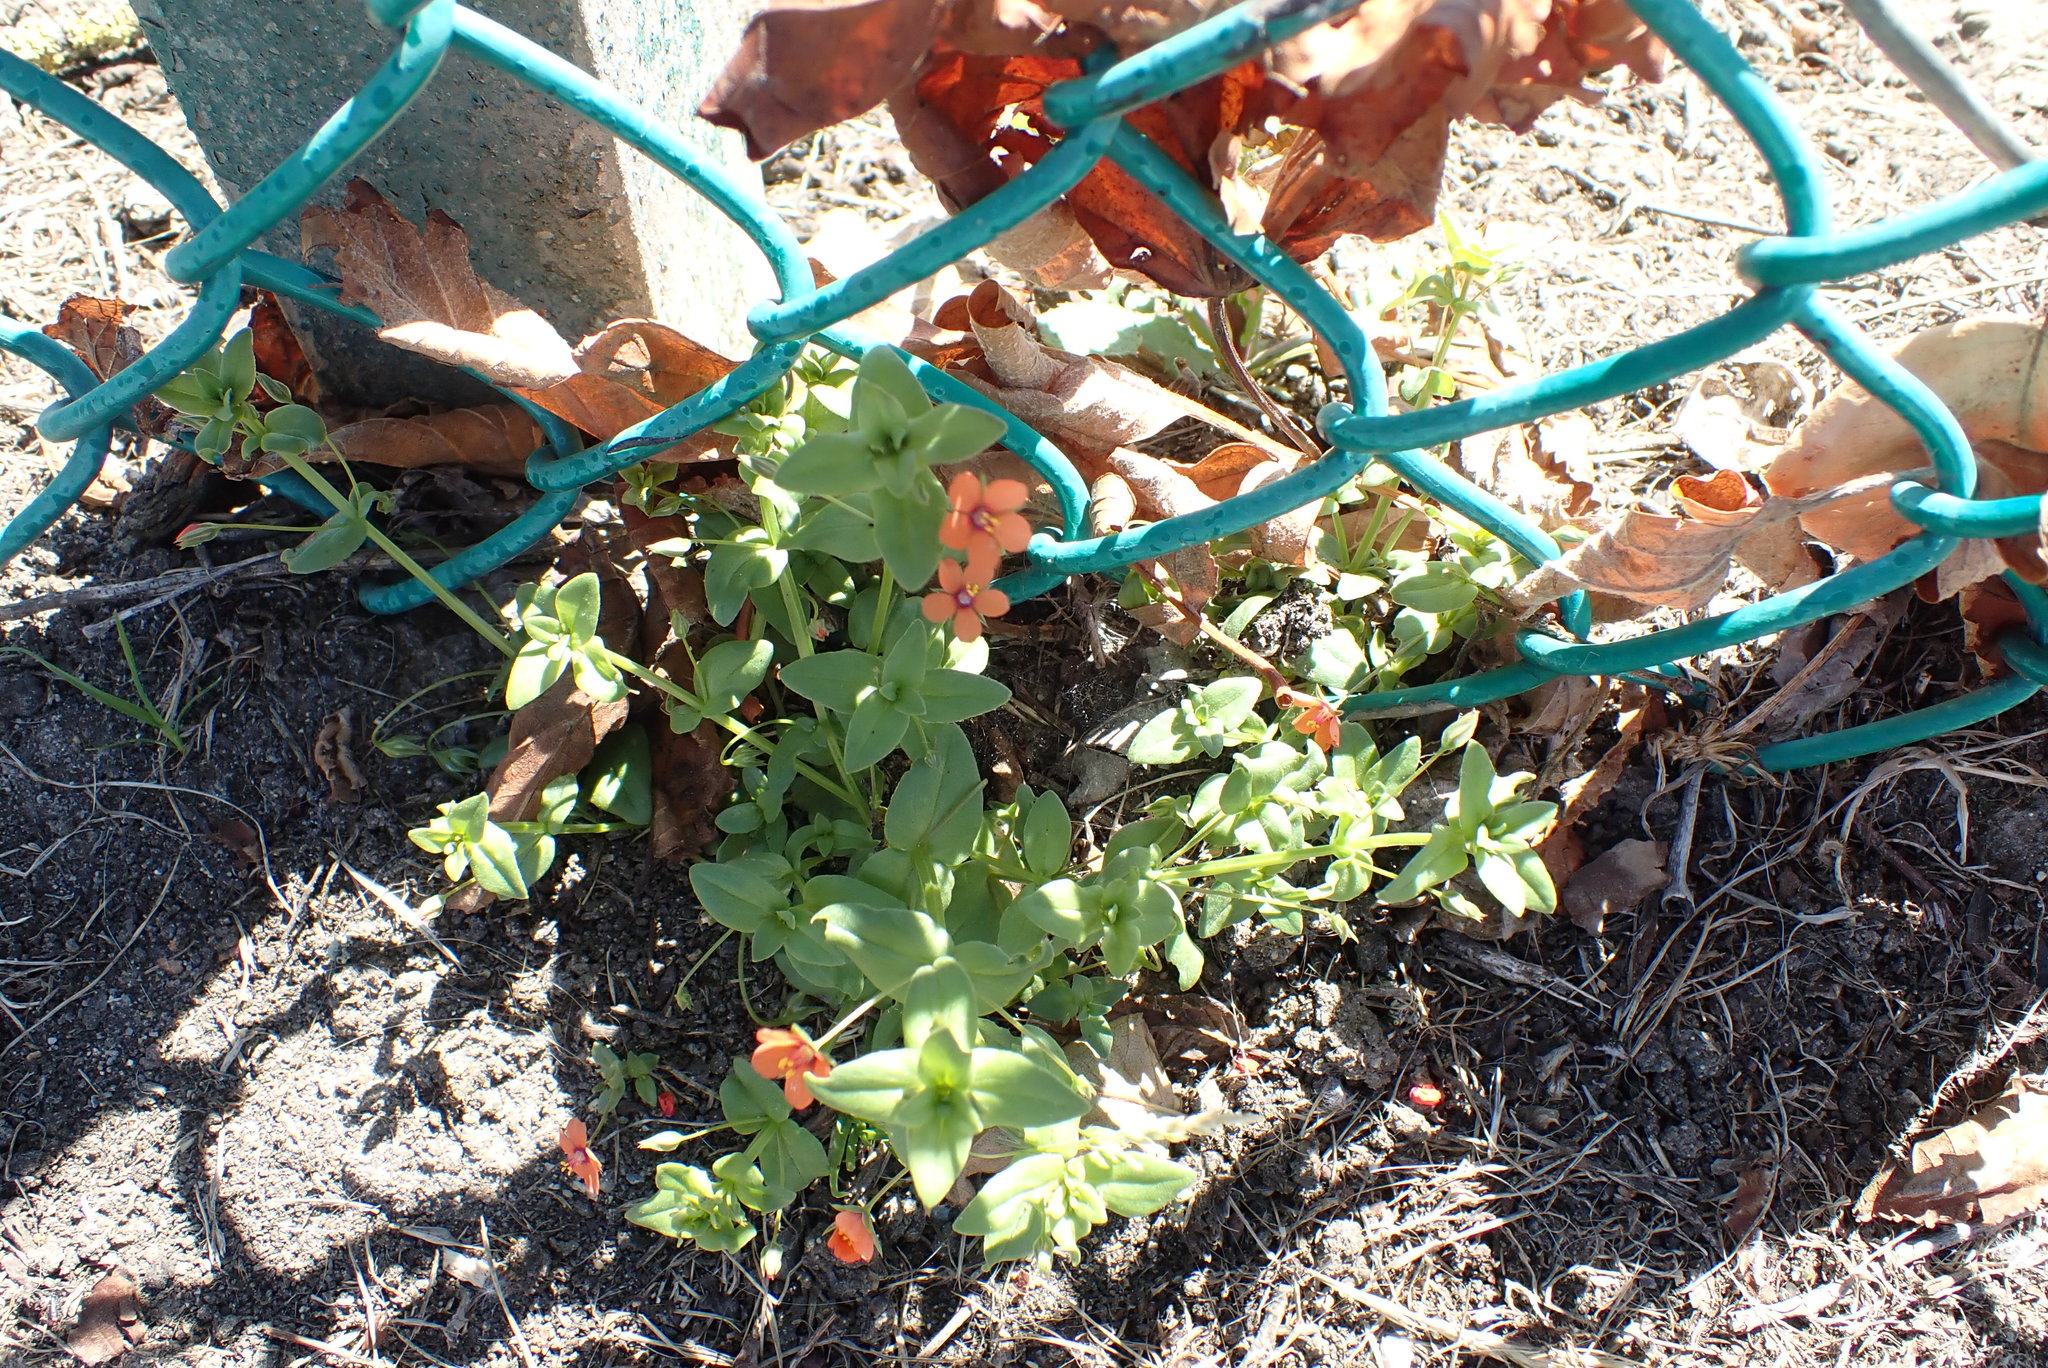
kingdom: Plantae
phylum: Tracheophyta
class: Magnoliopsida
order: Ericales
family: Primulaceae
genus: Lysimachia
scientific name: Lysimachia arvensis
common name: Scarlet pimpernel
